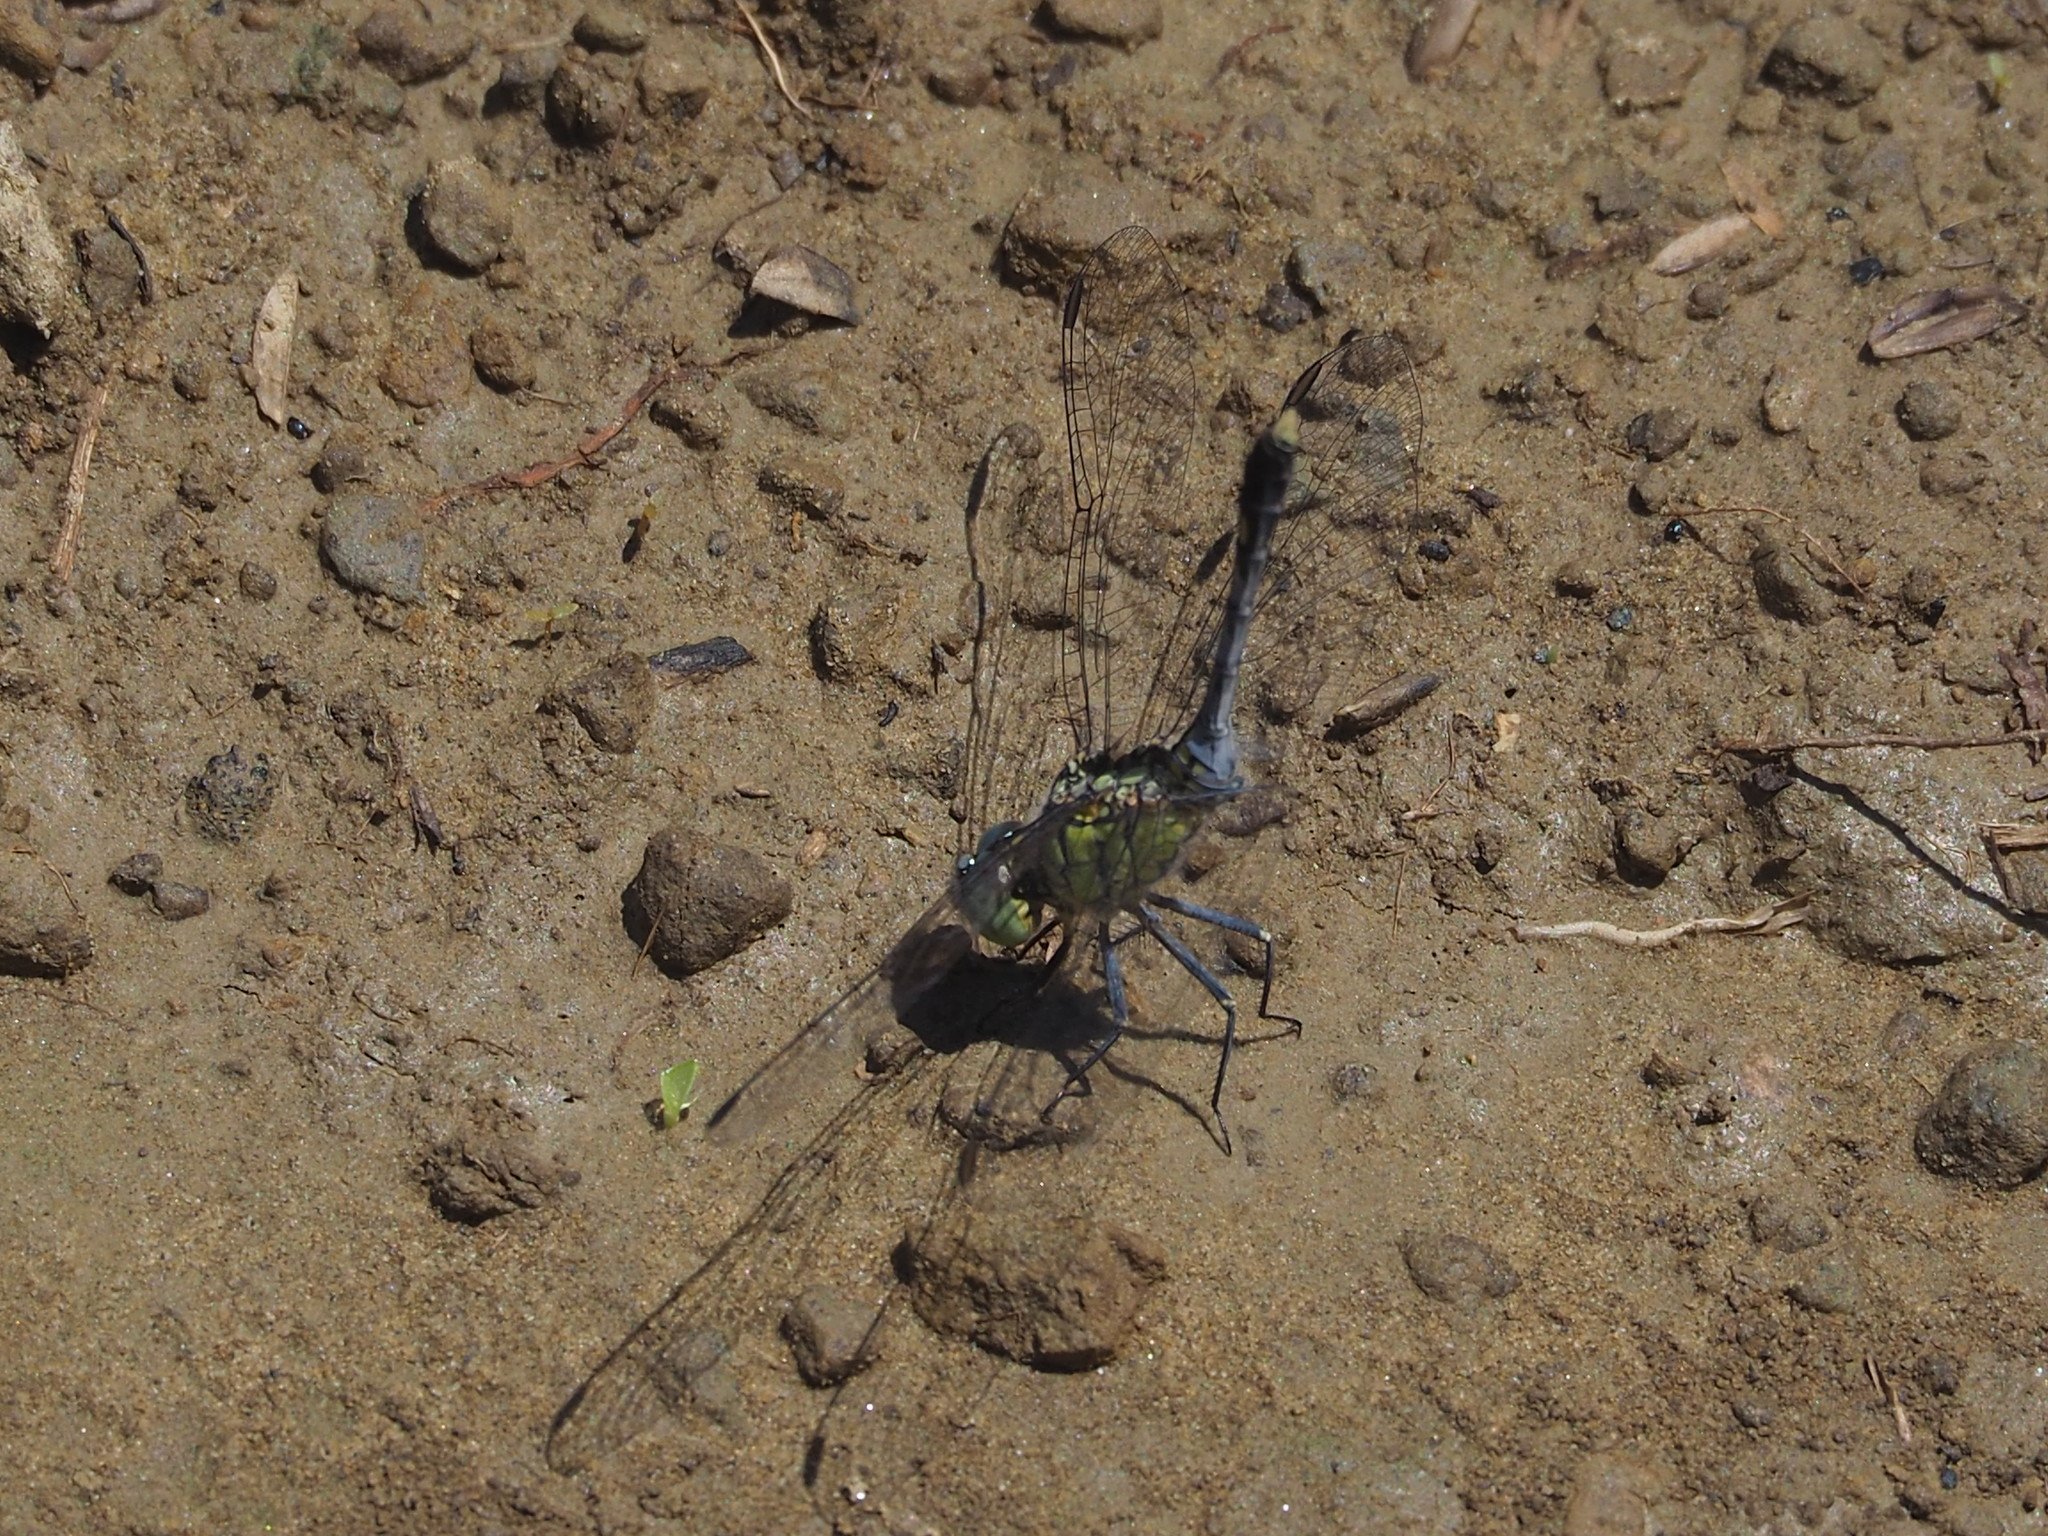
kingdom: Animalia
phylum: Arthropoda
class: Insecta
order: Odonata
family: Libellulidae
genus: Diplacodes
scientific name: Diplacodes trivialis
